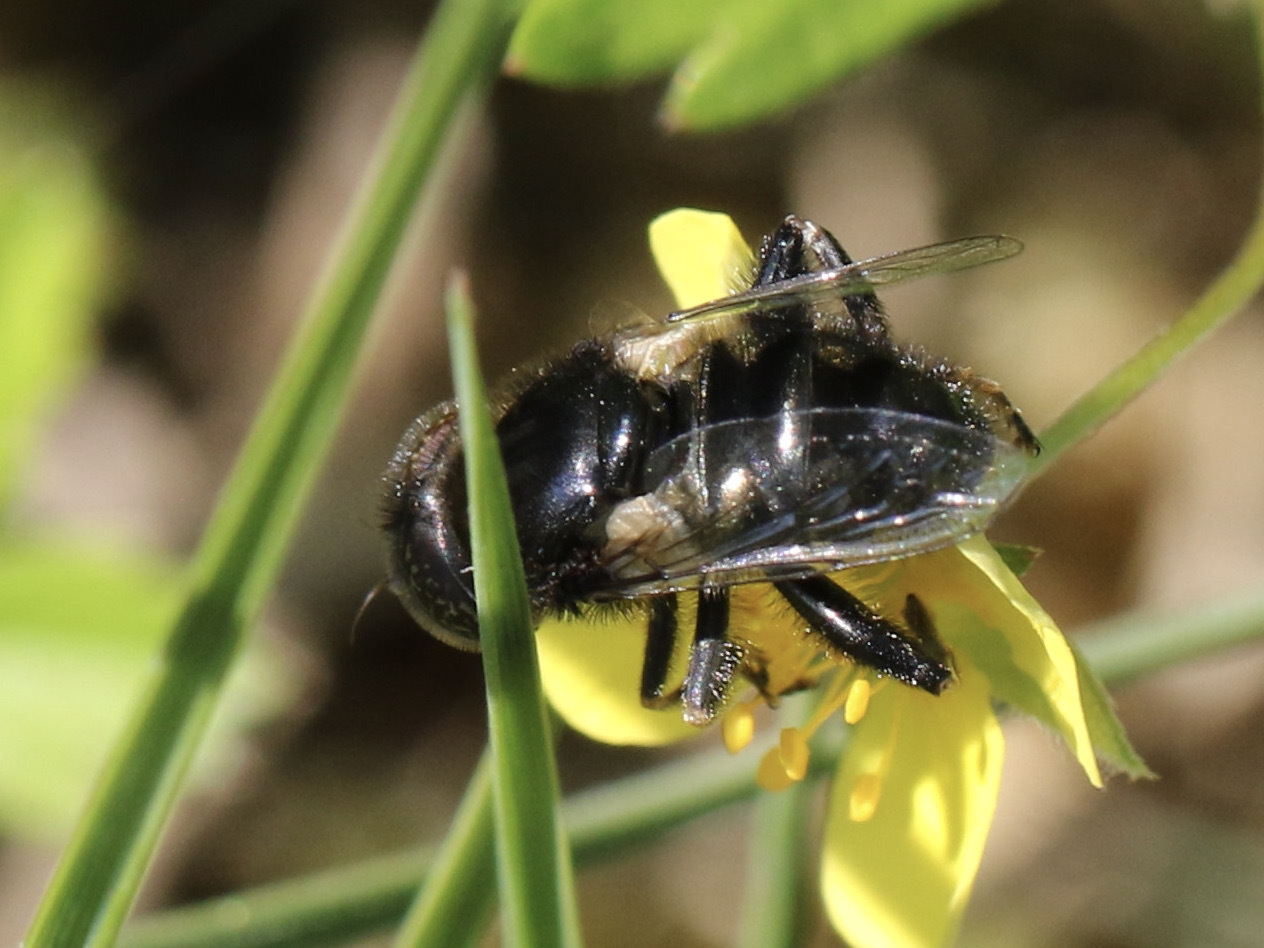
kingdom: Animalia
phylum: Arthropoda
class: Insecta
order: Diptera
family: Syrphidae
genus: Eristalinus
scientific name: Eristalinus sepulchralis
